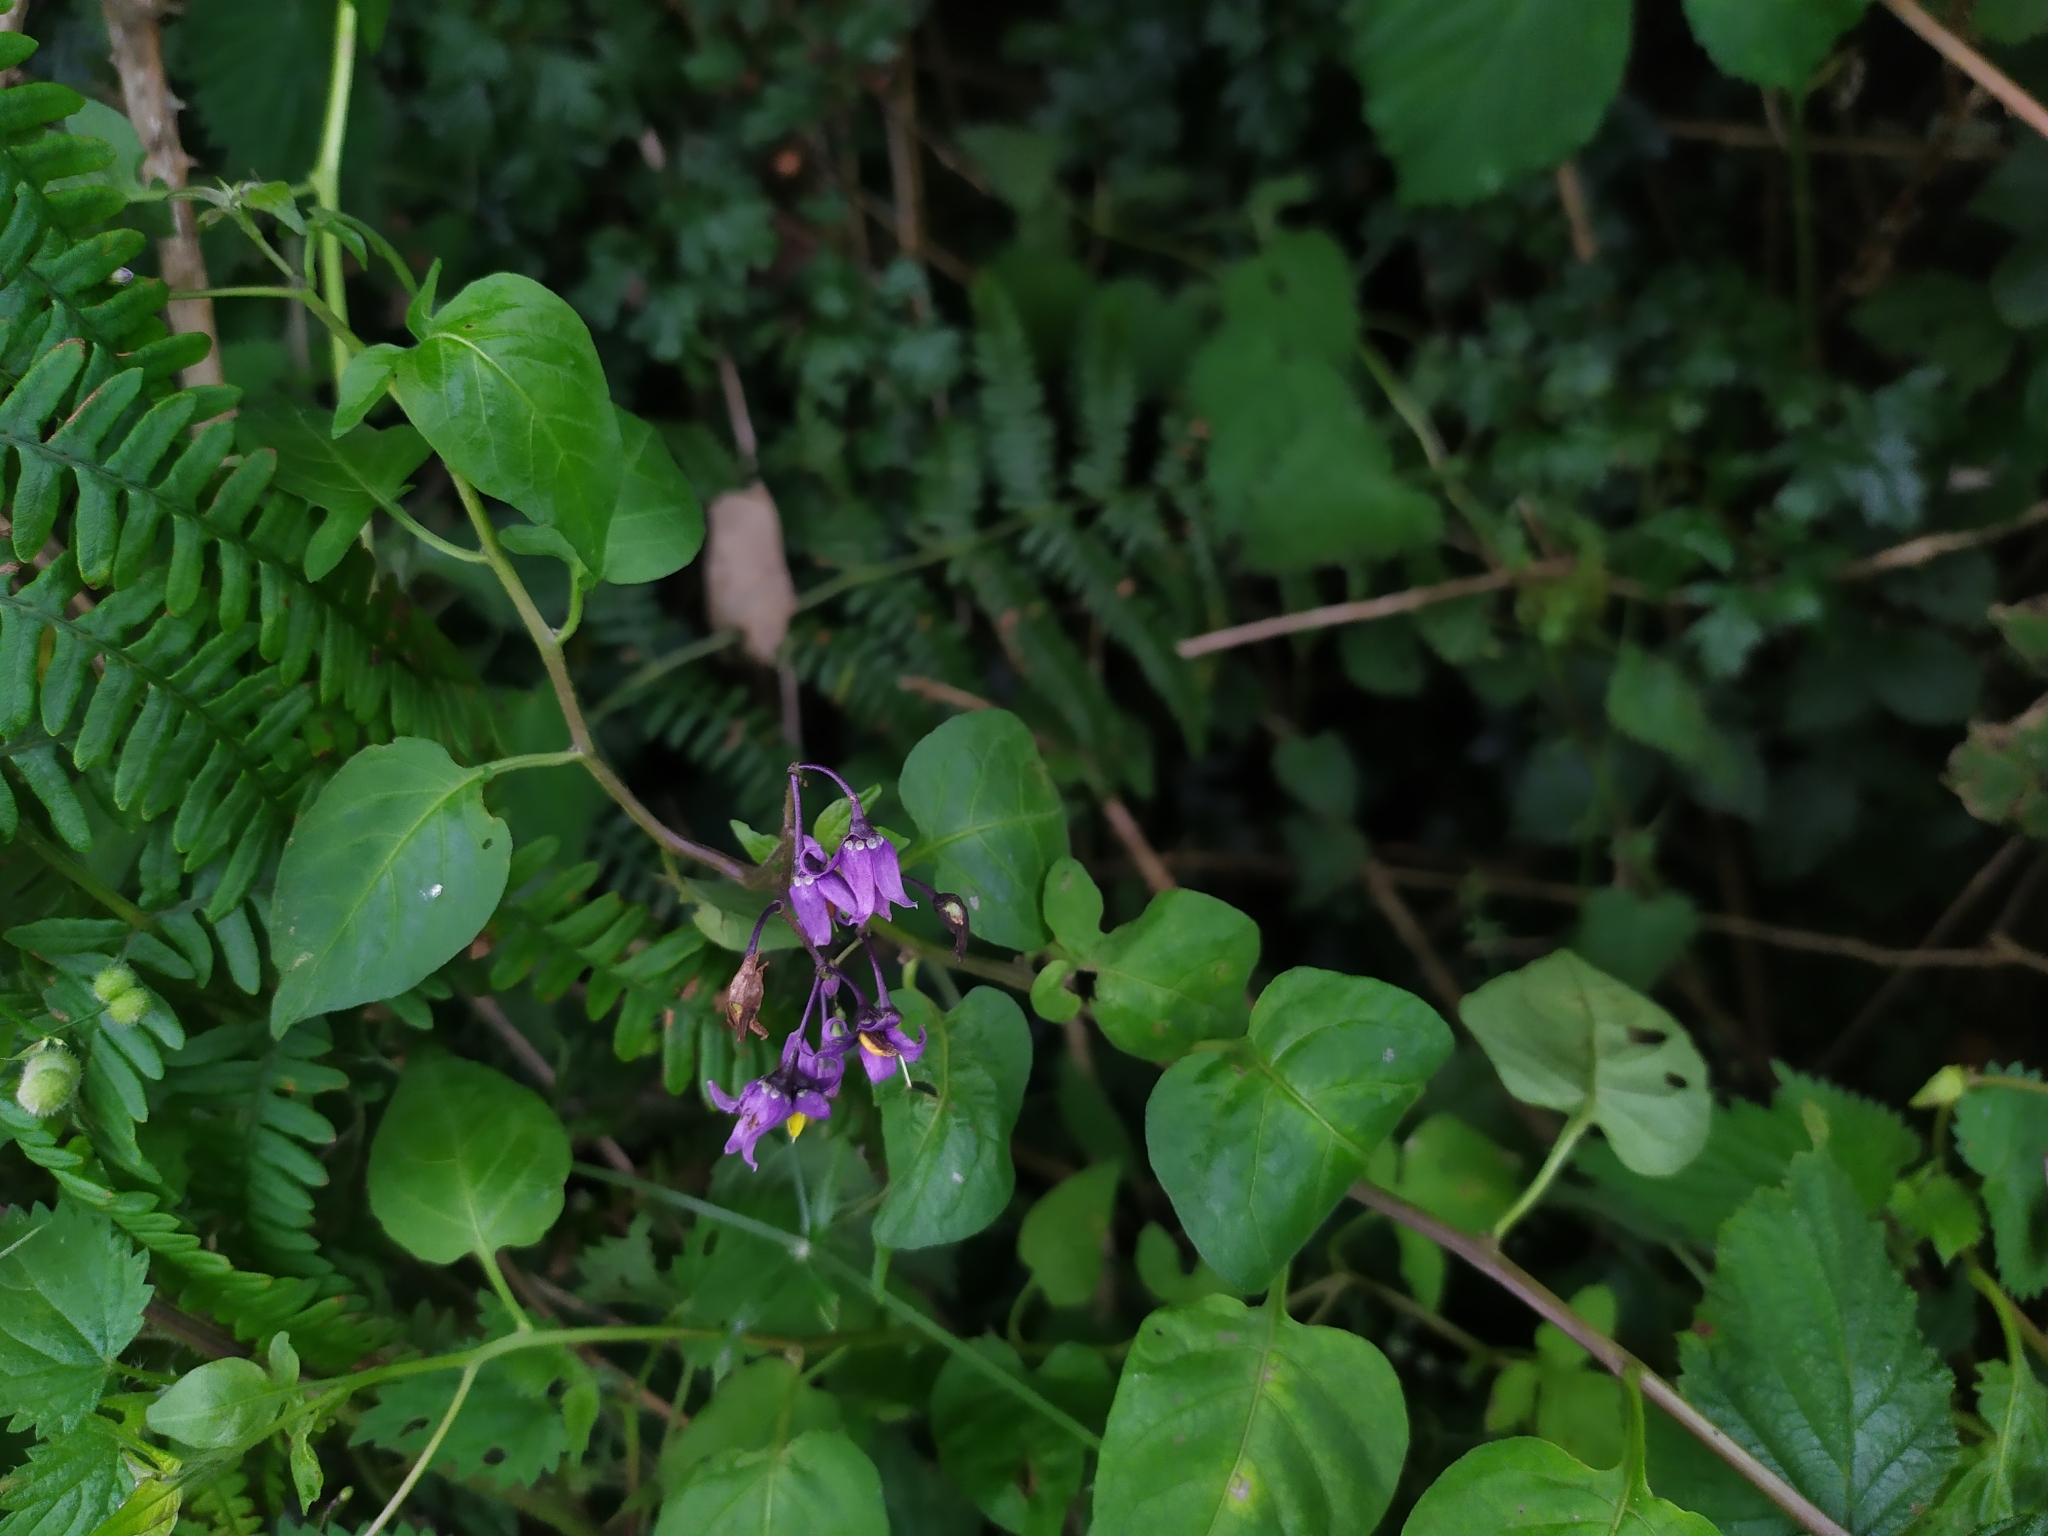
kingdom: Plantae
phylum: Tracheophyta
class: Magnoliopsida
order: Solanales
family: Solanaceae
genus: Solanum
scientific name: Solanum dulcamara
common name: Climbing nightshade
